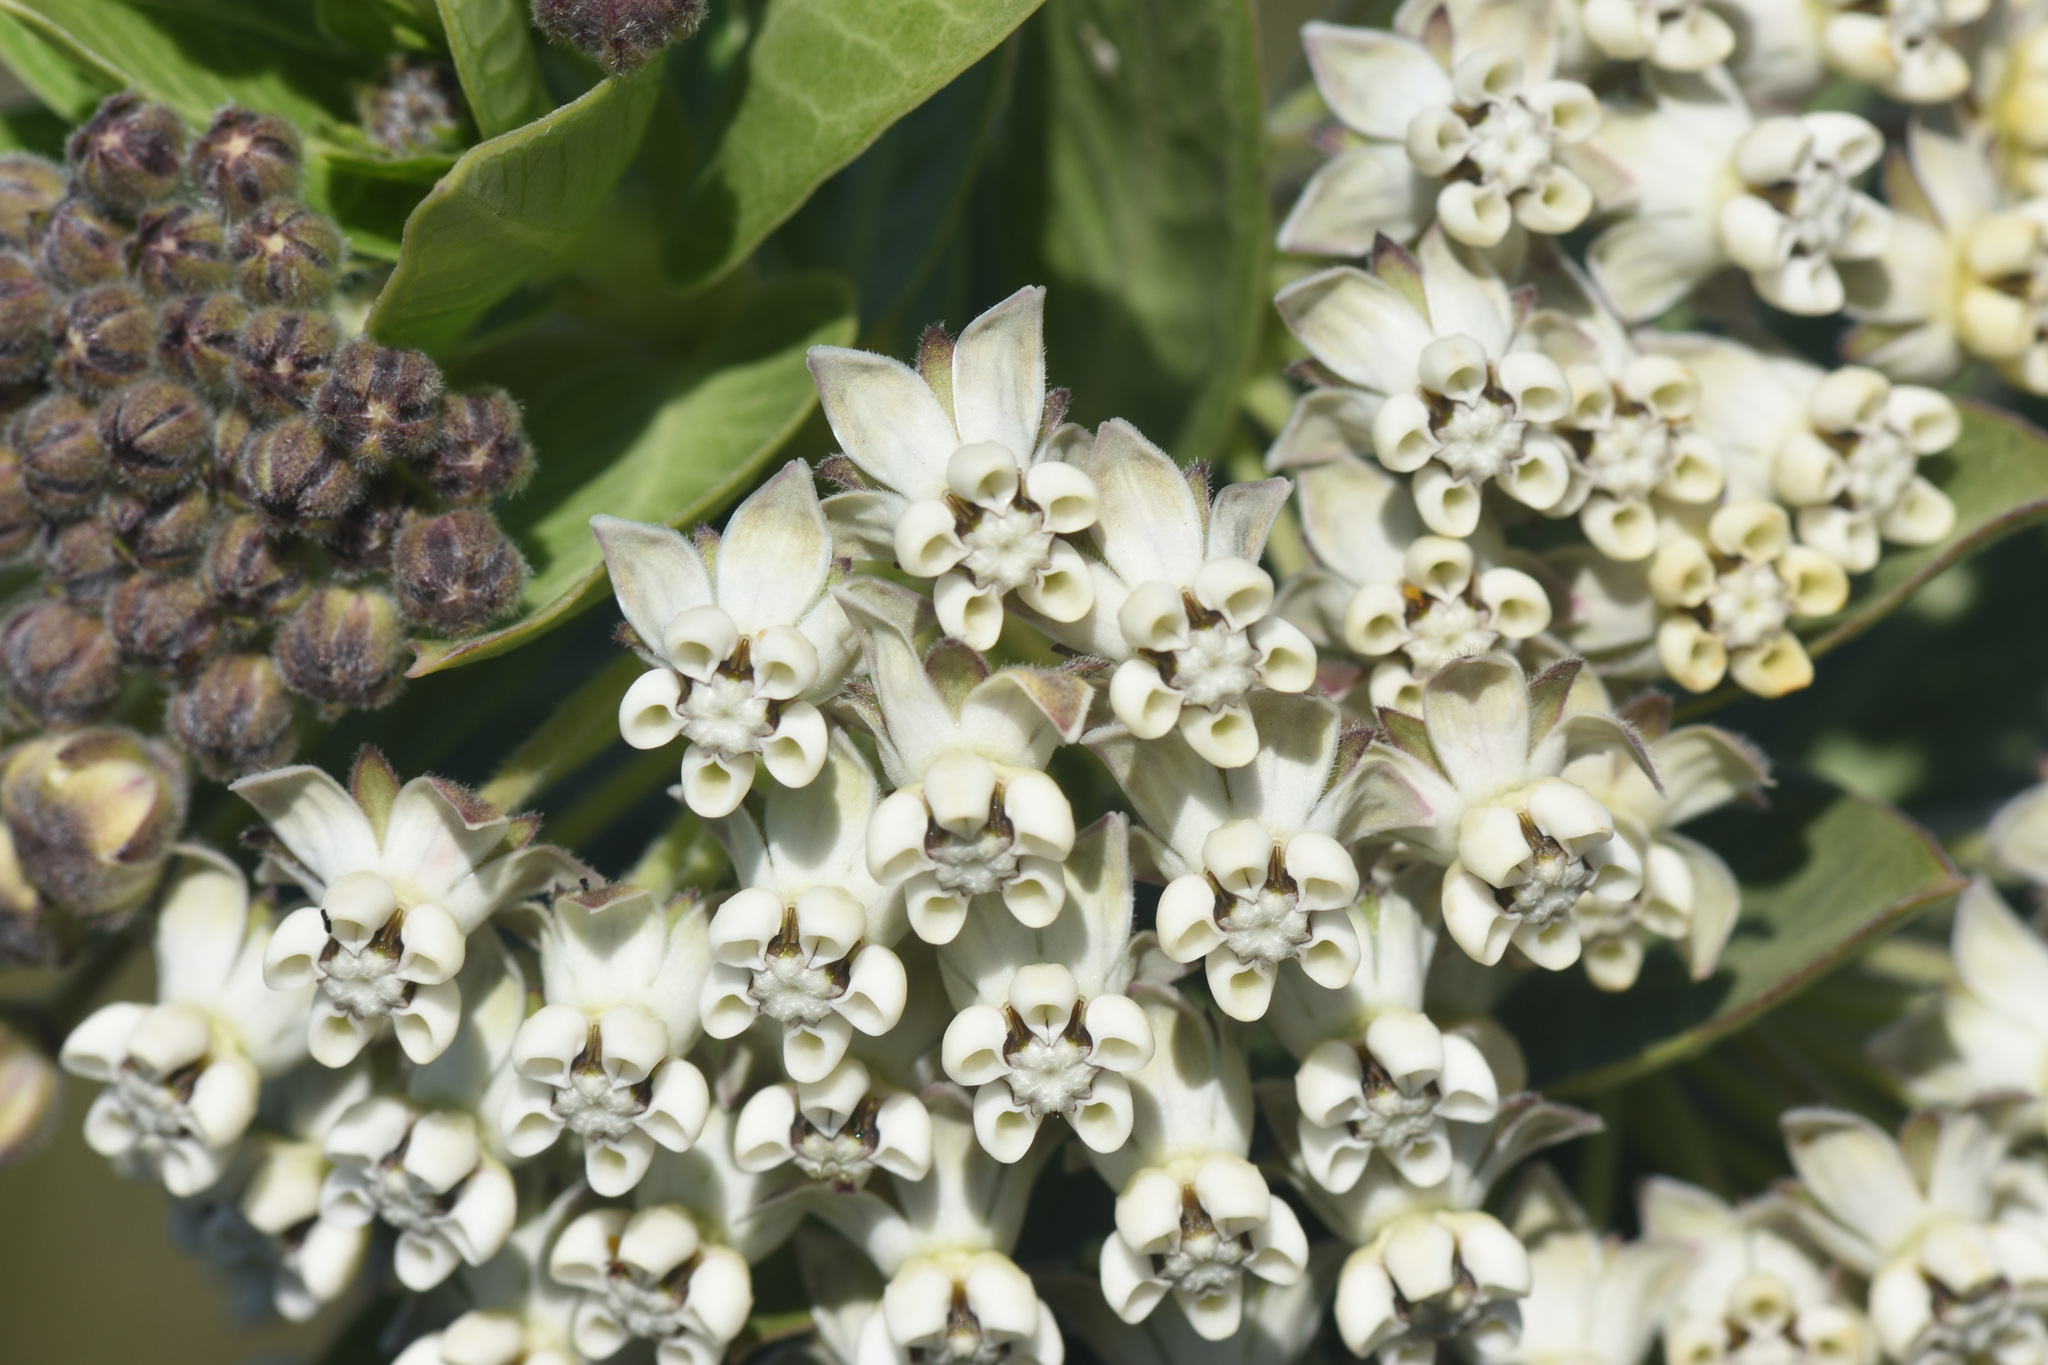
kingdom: Plantae
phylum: Tracheophyta
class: Magnoliopsida
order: Gentianales
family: Apocynaceae
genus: Gomphocarpus
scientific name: Gomphocarpus cancellatus
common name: Wild cotton
